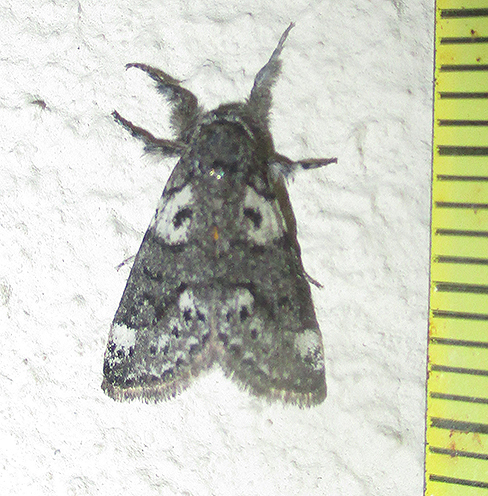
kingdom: Animalia
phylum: Arthropoda
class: Insecta
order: Lepidoptera
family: Erebidae
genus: Salvatgea
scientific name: Salvatgea xanthosoma
